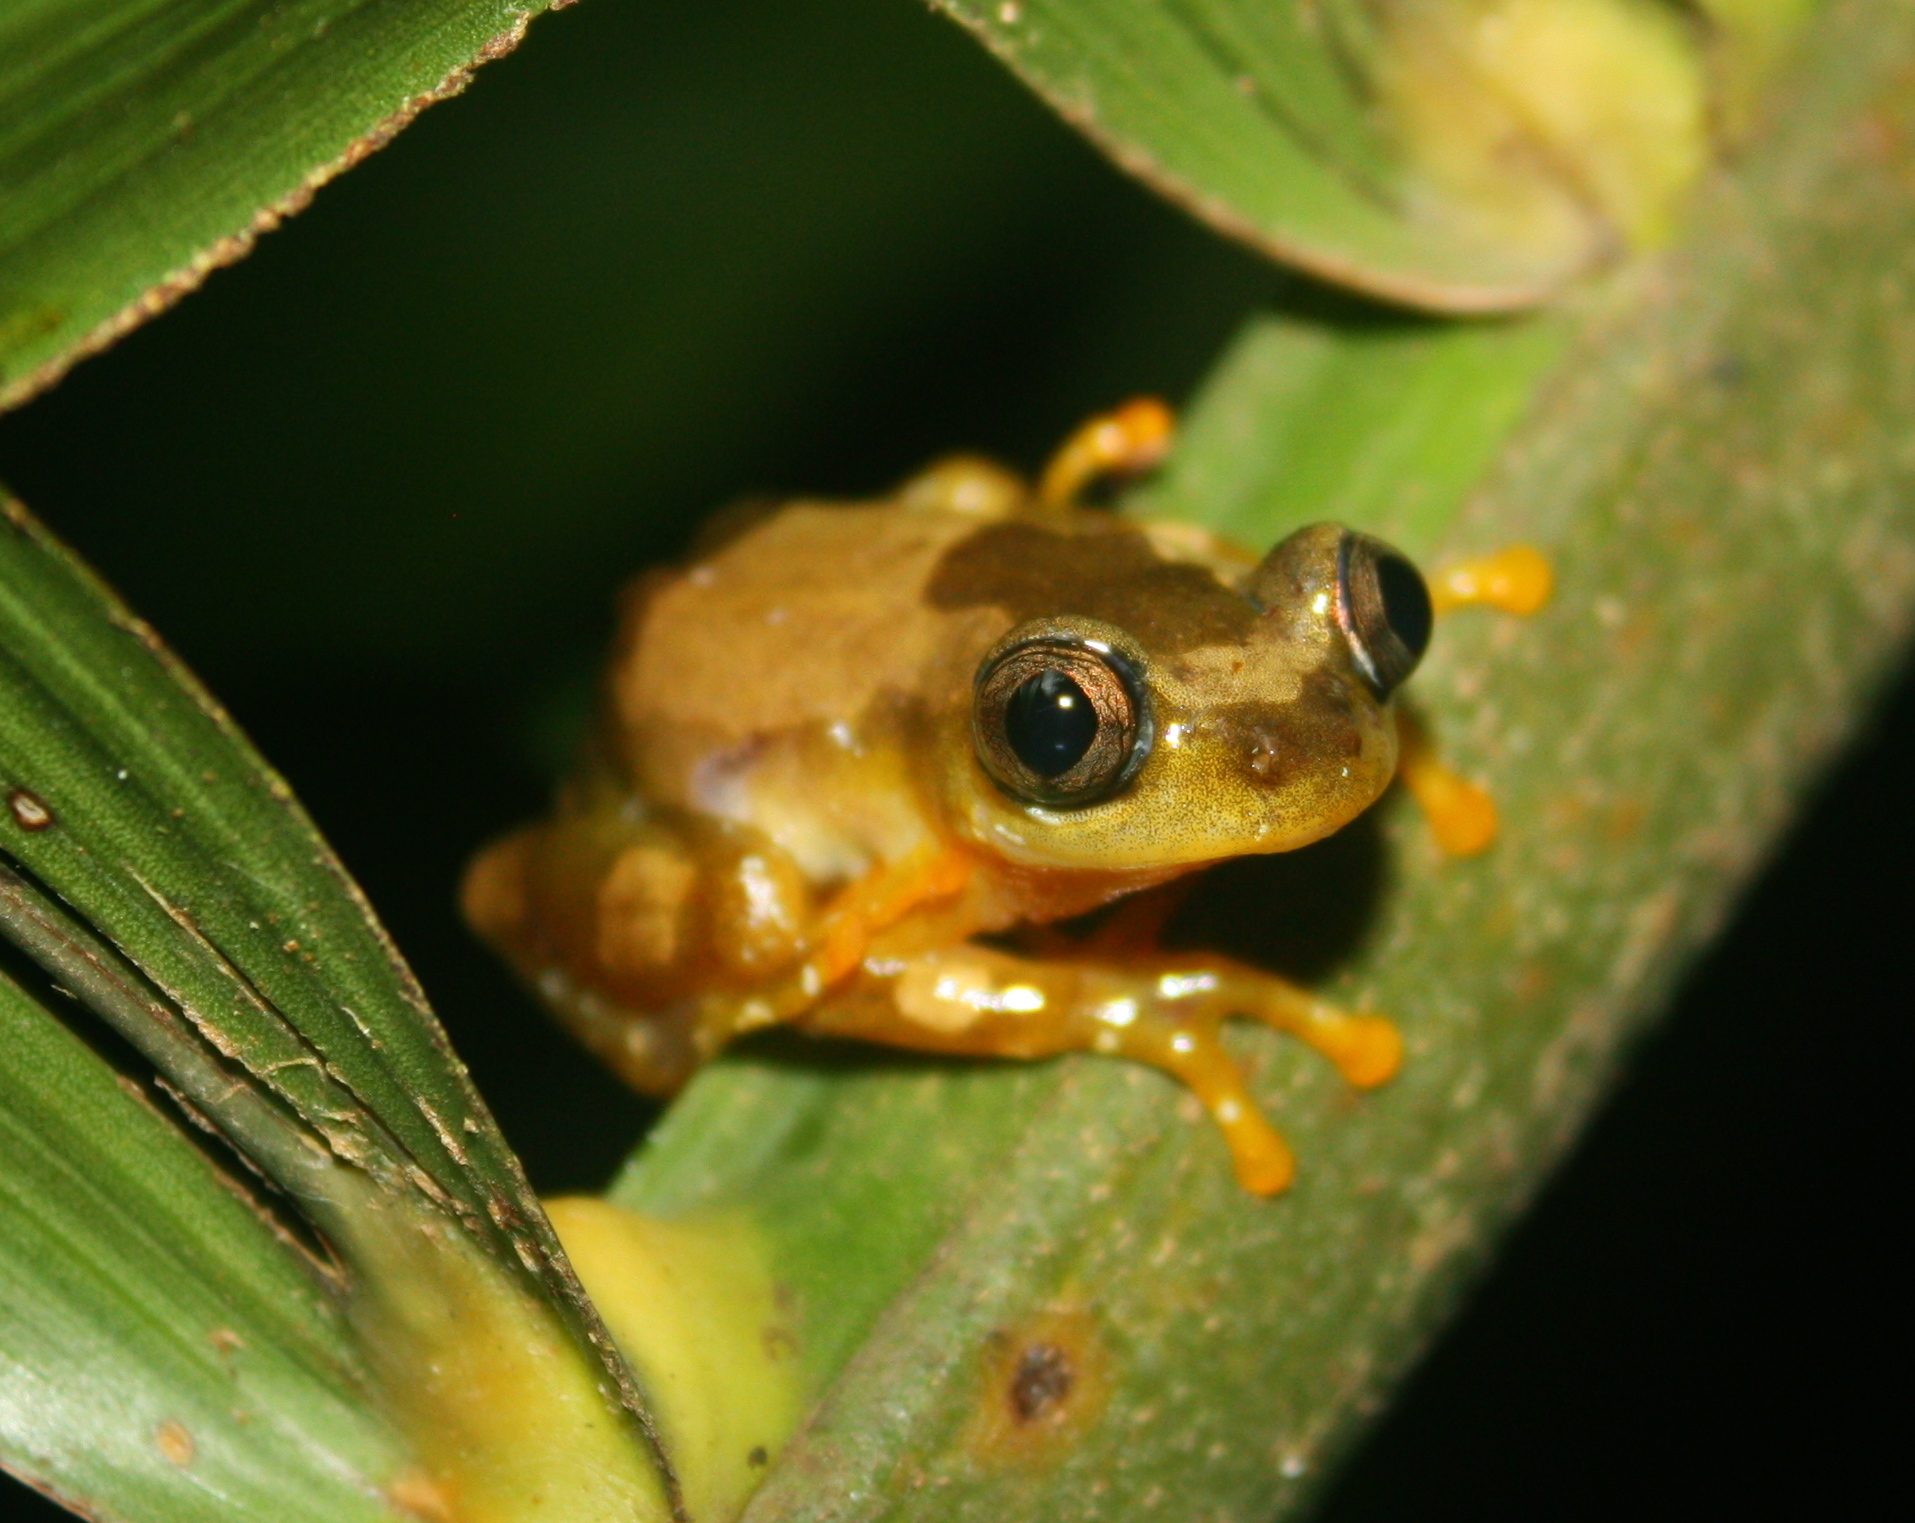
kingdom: Animalia
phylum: Chordata
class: Amphibia
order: Anura
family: Hyperoliidae
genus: Afrixalus
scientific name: Afrixalus nigeriensis
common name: Nigeria banana frog
